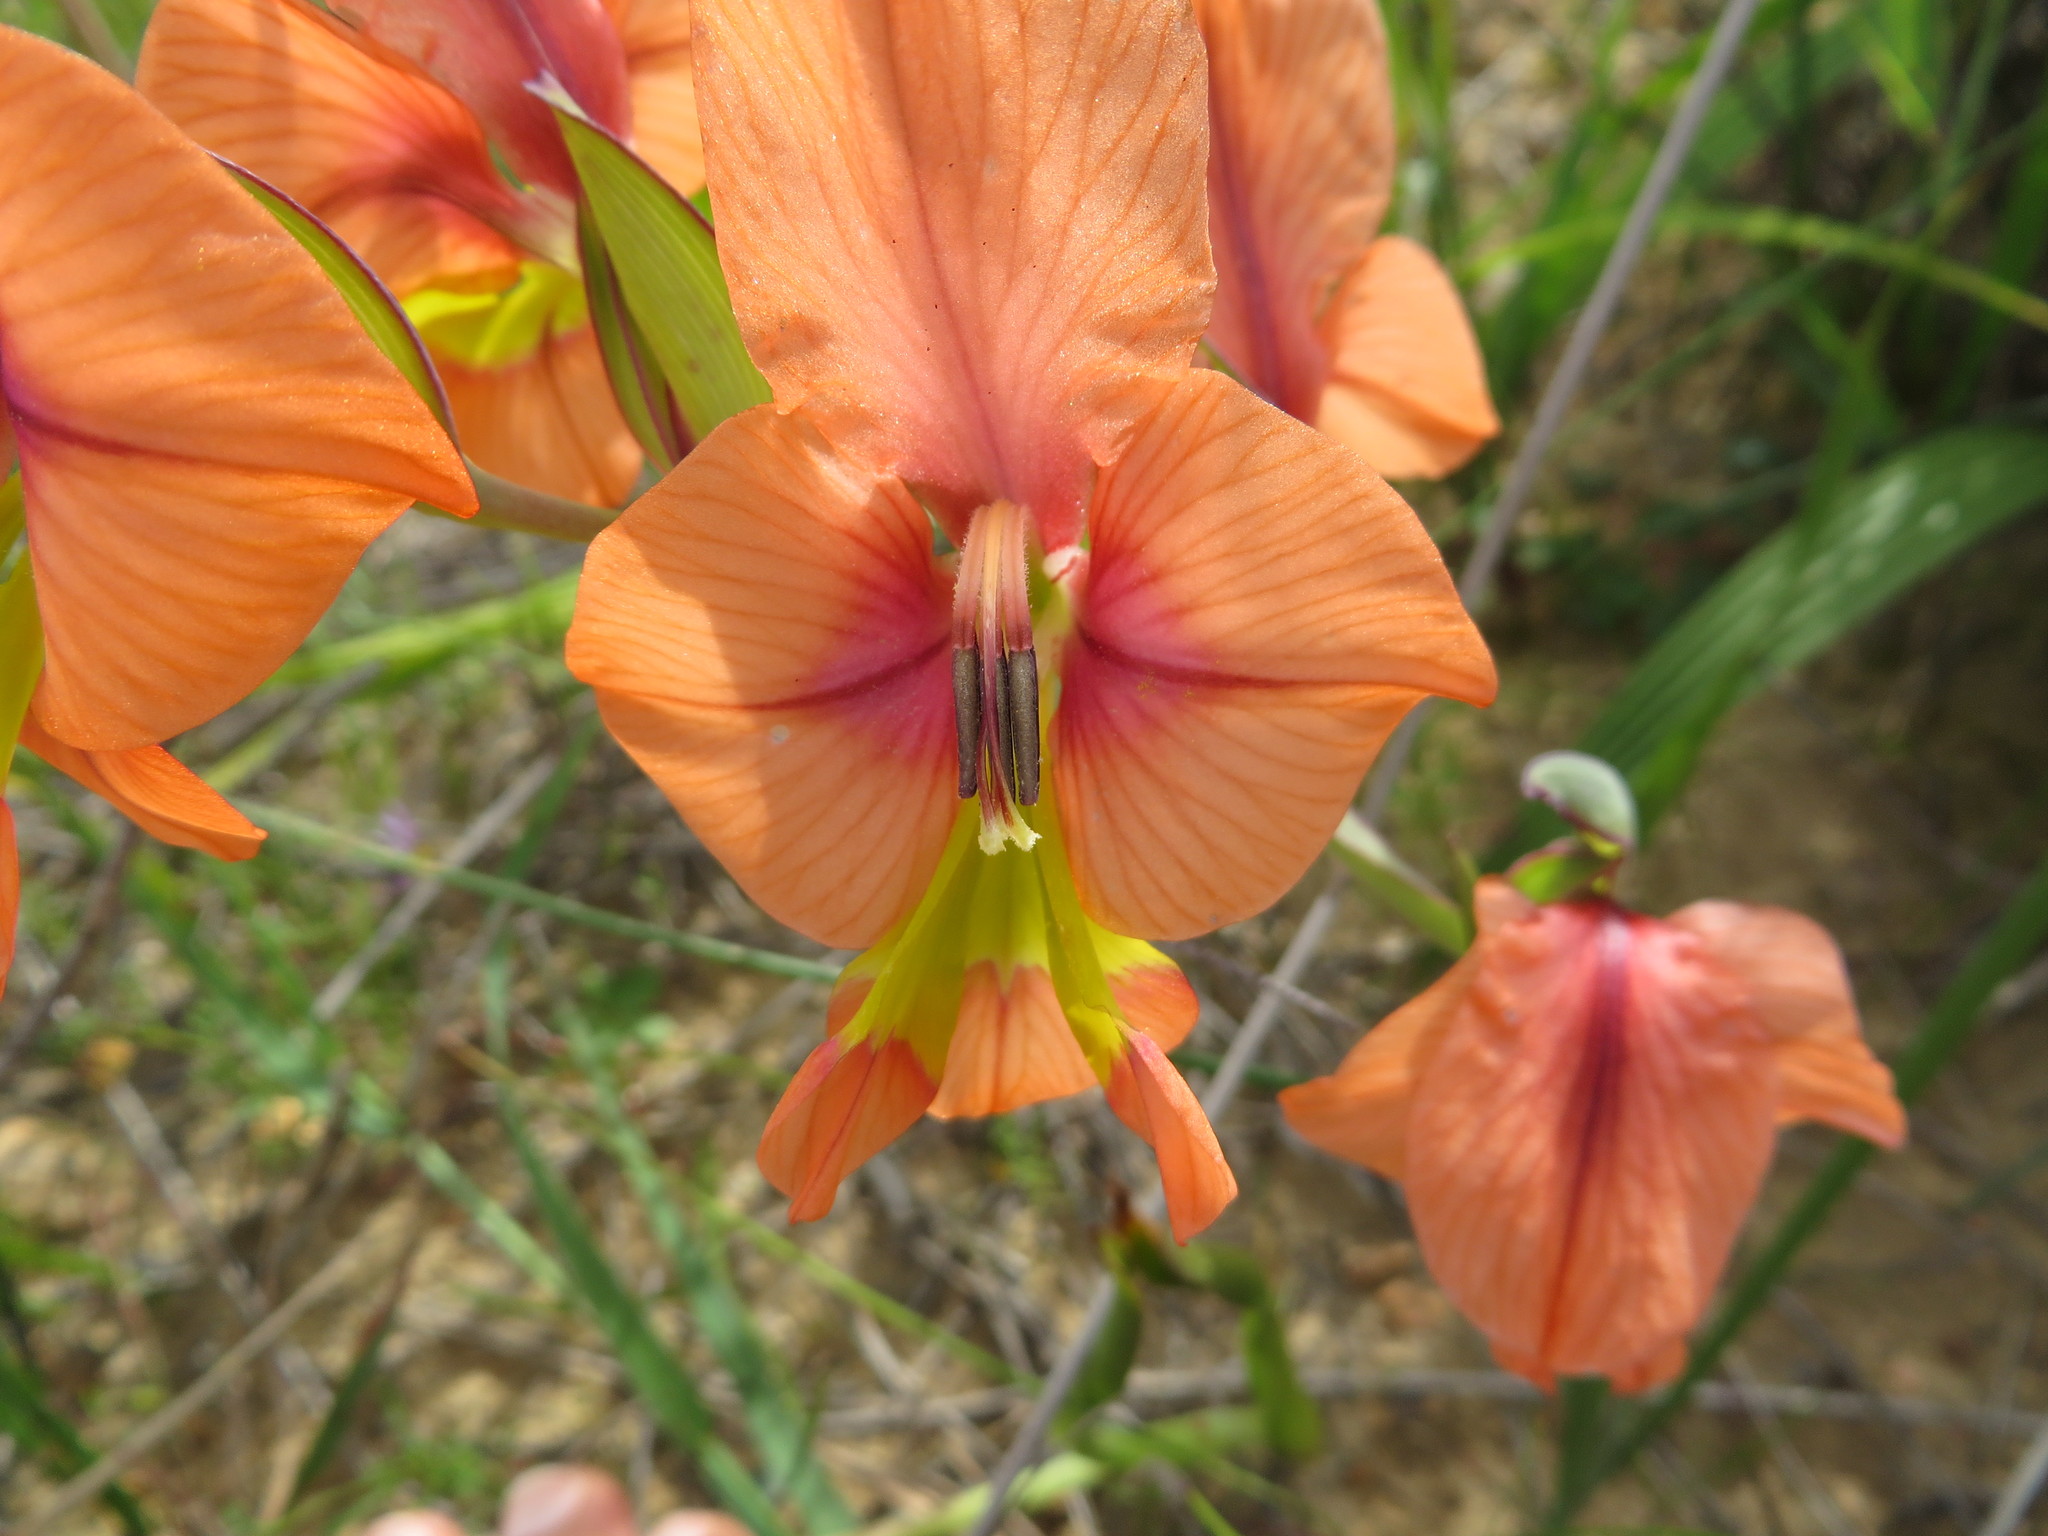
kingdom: Plantae
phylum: Tracheophyta
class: Liliopsida
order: Asparagales
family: Iridaceae
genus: Gladiolus
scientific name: Gladiolus meliusculus
